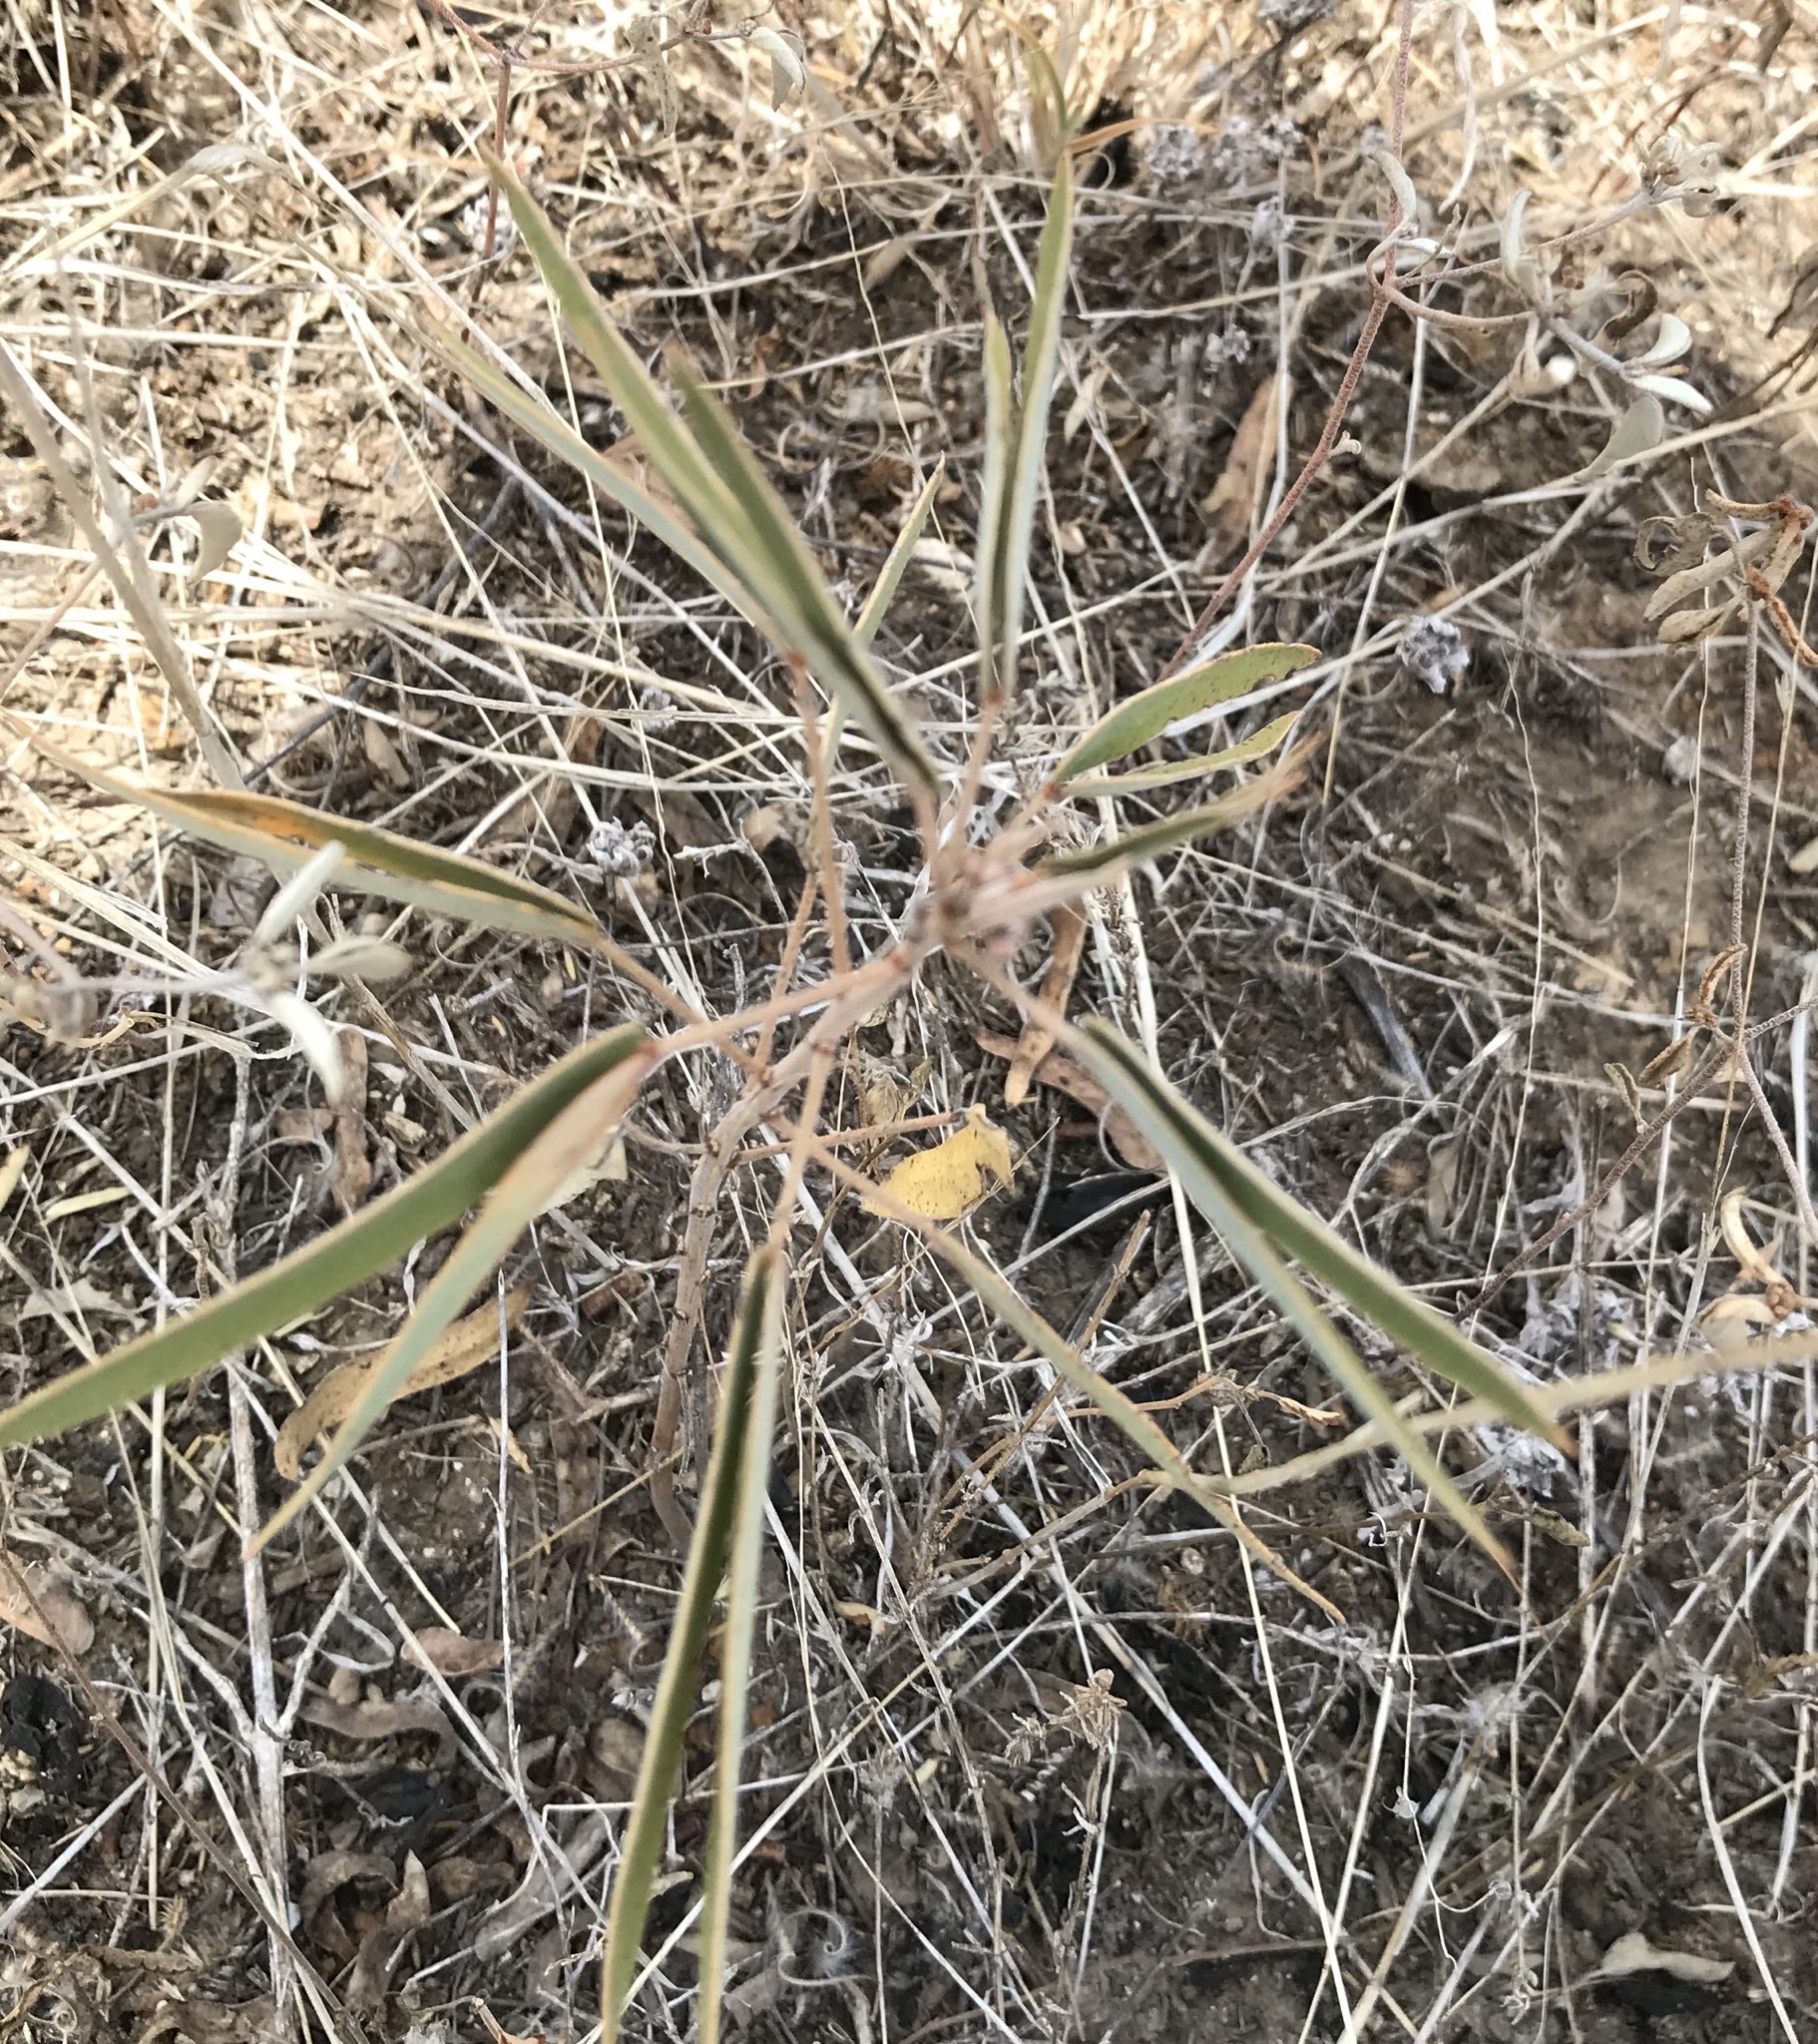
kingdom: Plantae
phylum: Tracheophyta
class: Magnoliopsida
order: Fabales
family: Fabaceae
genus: Senna
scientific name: Senna roemeriana
